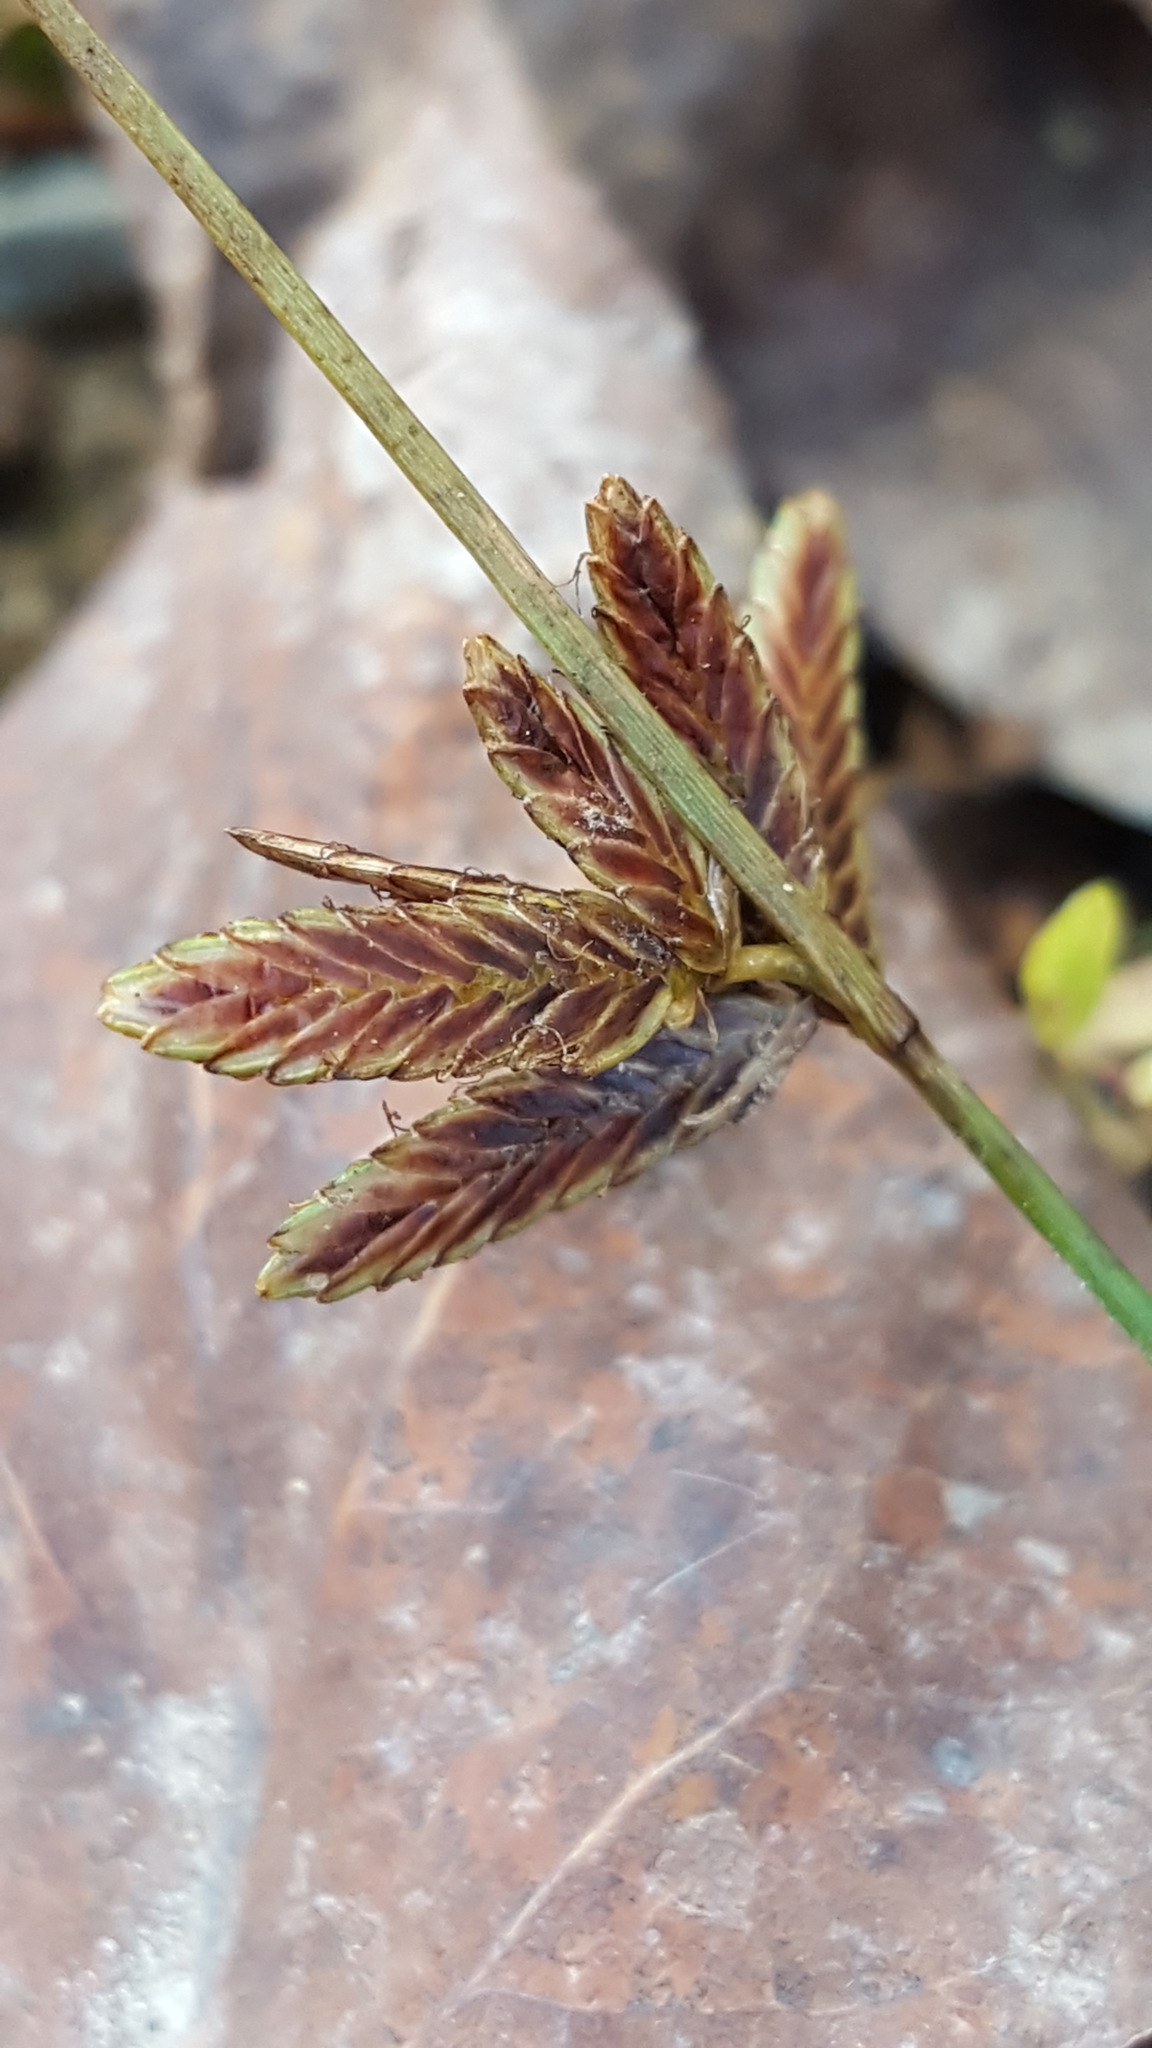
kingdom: Plantae
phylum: Tracheophyta
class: Liliopsida
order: Poales
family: Cyperaceae
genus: Cyperus
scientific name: Cyperus bipartitus
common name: Brook flatsedge
